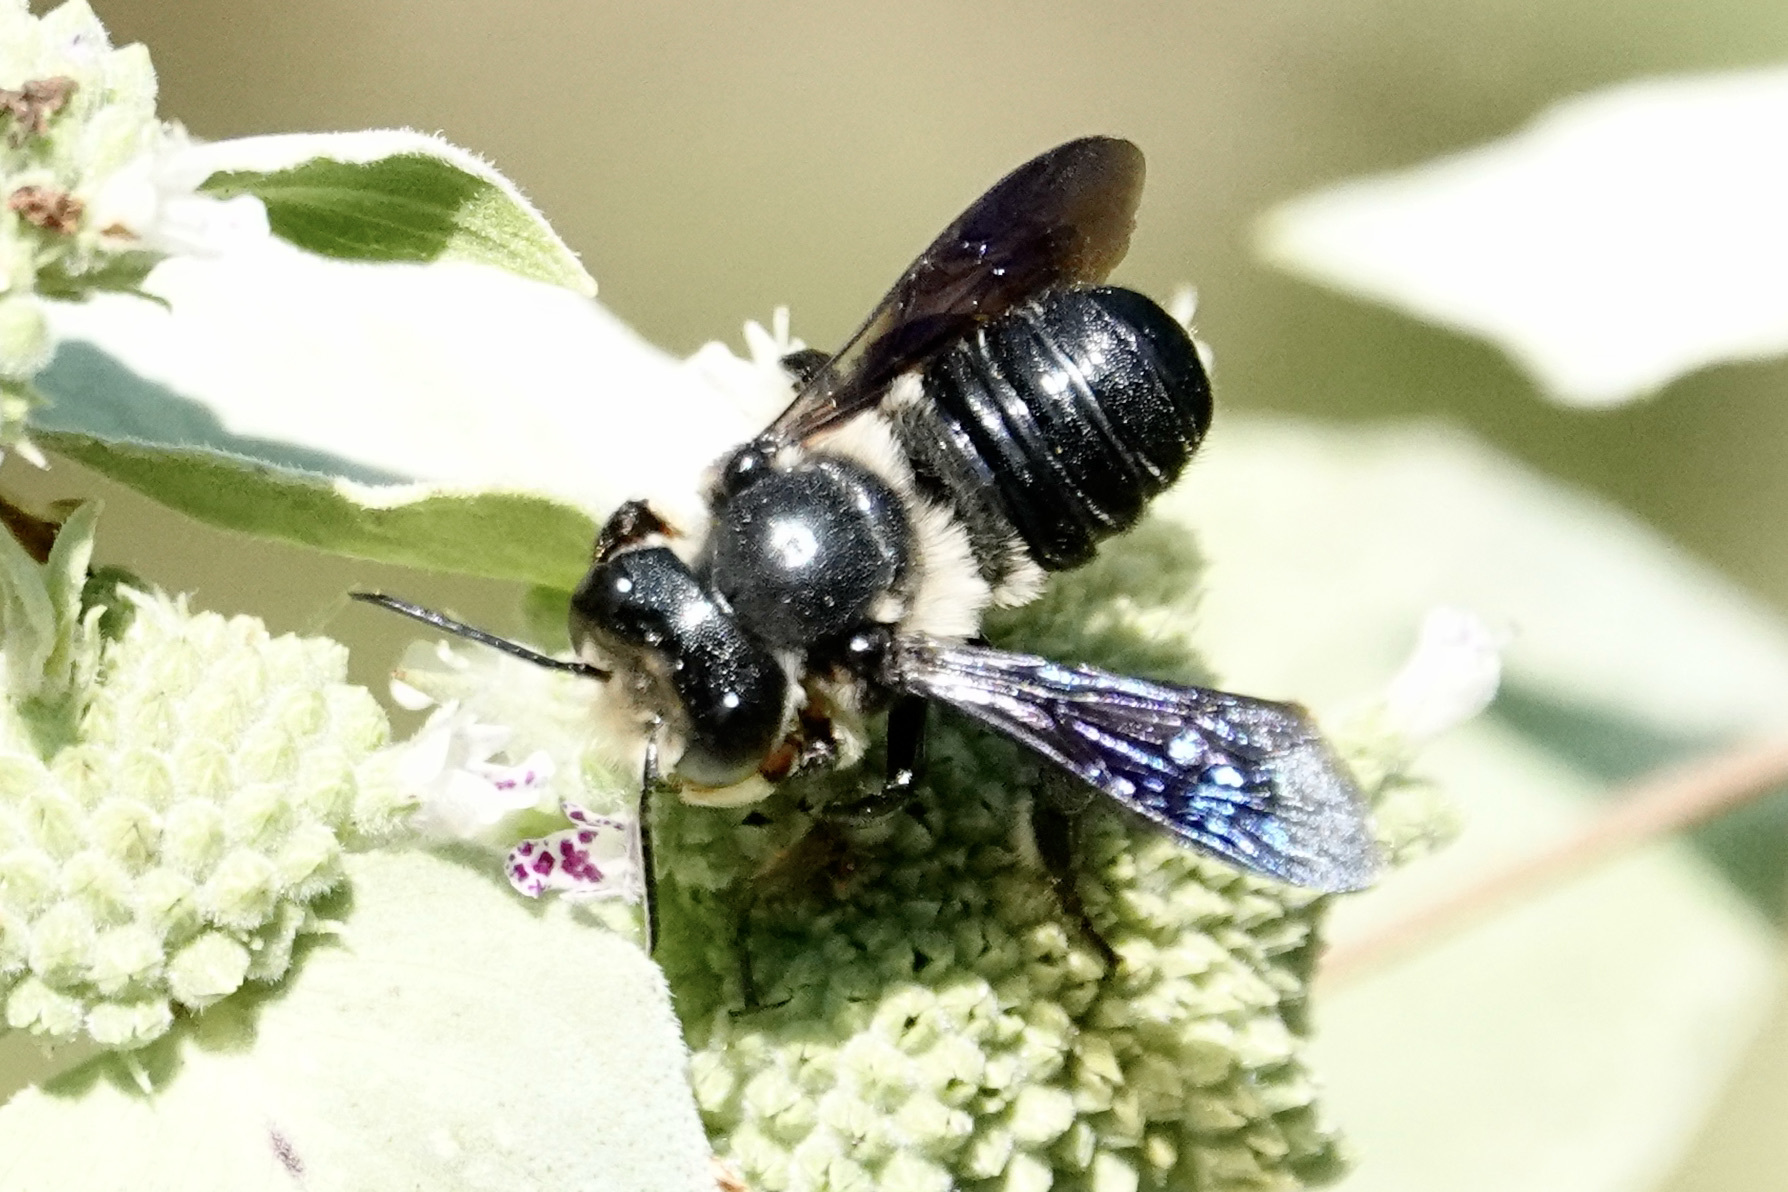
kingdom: Animalia
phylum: Arthropoda
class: Insecta
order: Hymenoptera
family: Megachilidae
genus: Megachile
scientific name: Megachile xylocopoides
